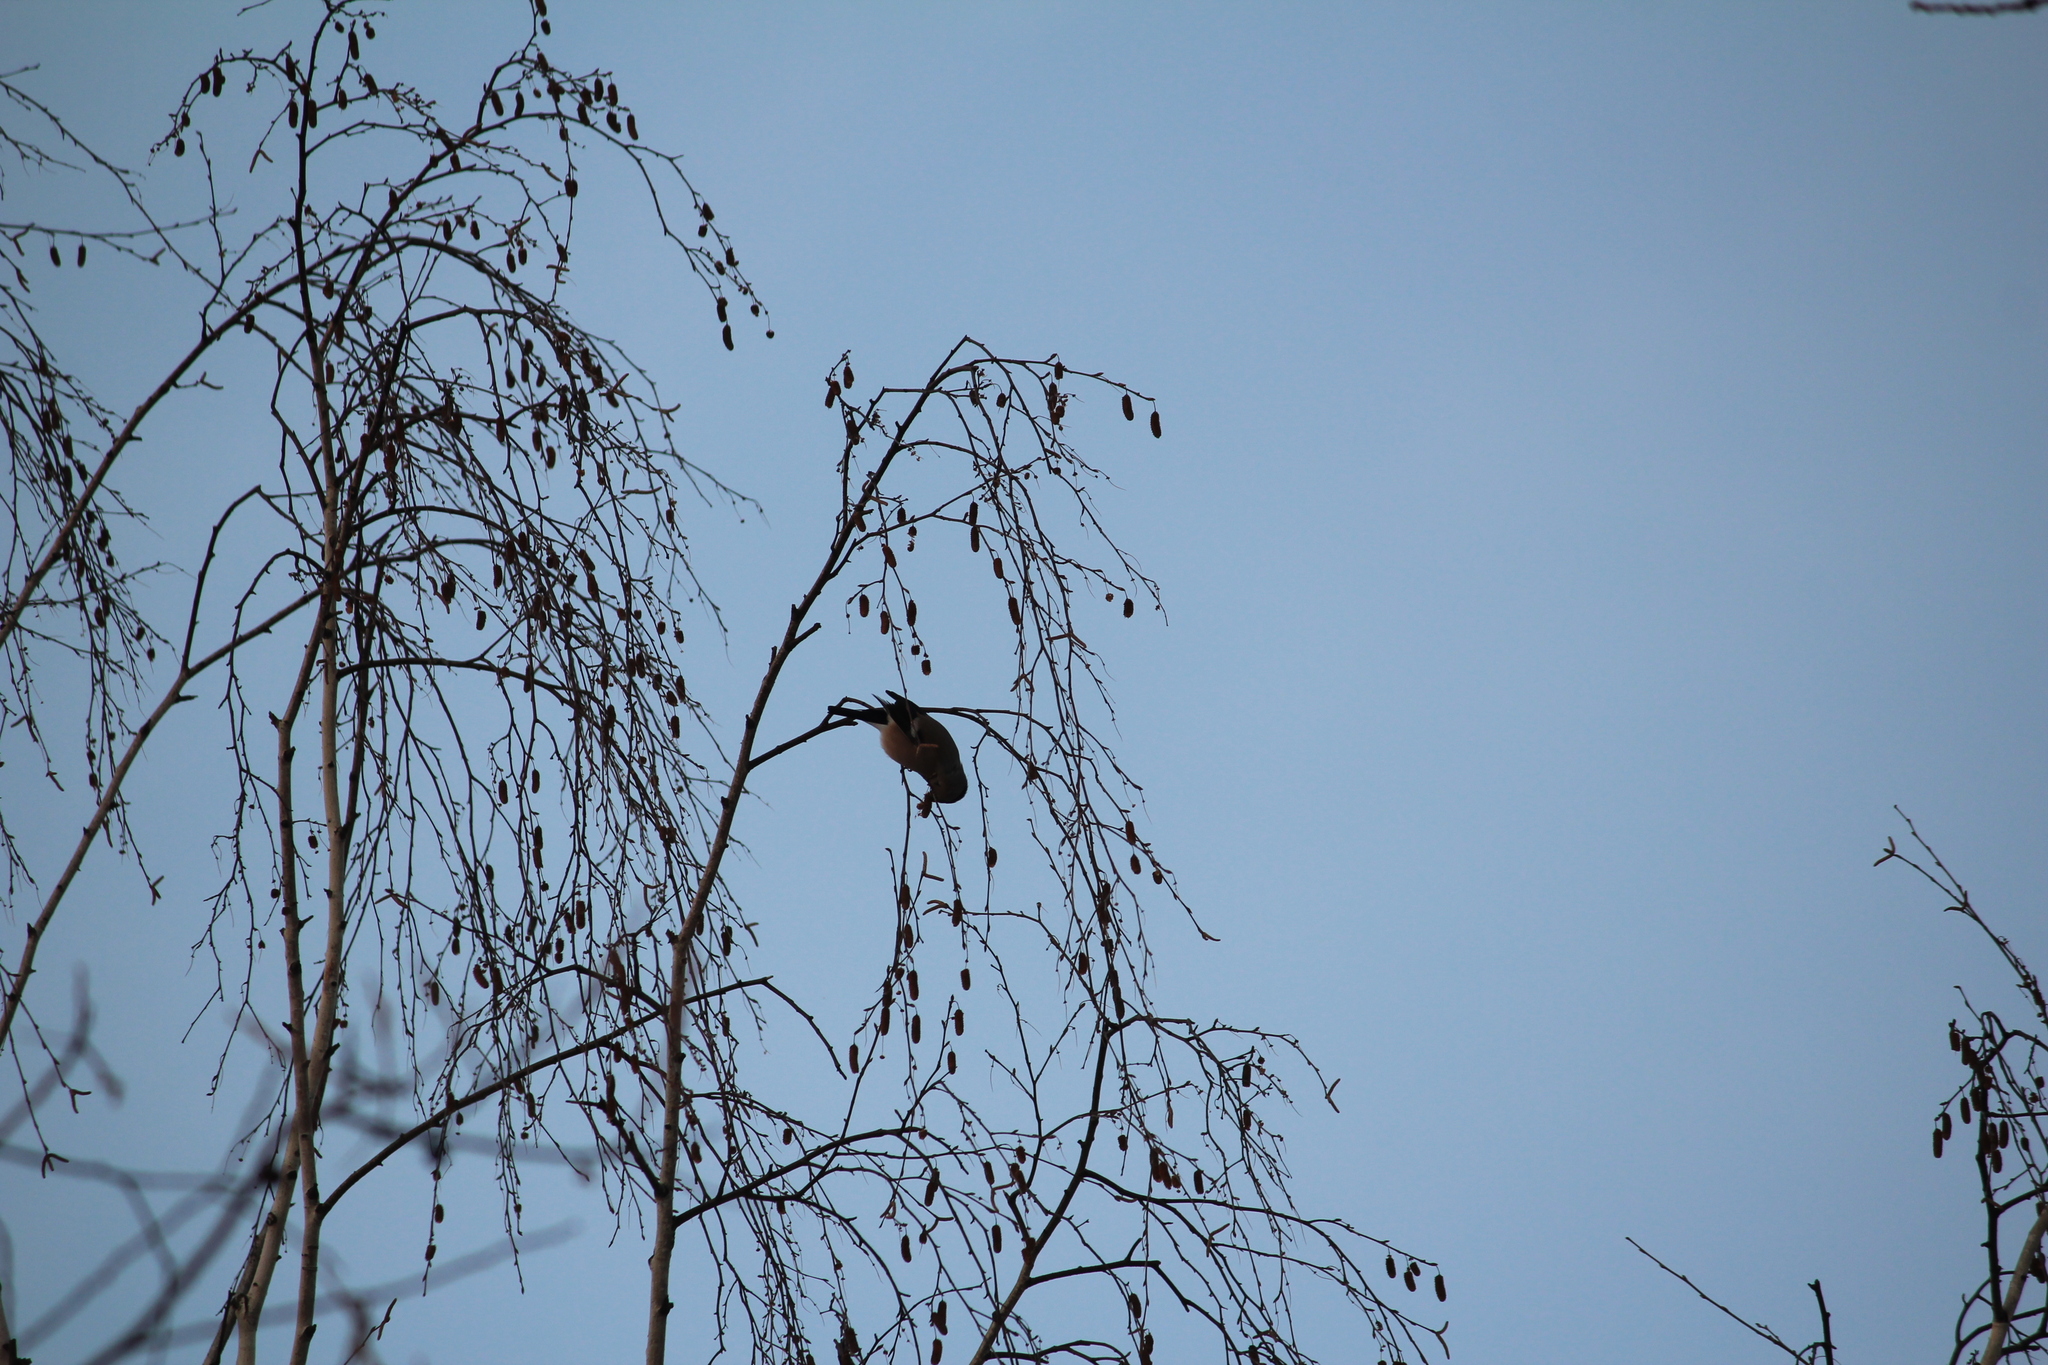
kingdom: Animalia
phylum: Chordata
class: Aves
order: Passeriformes
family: Fringillidae
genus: Pyrrhula
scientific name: Pyrrhula pyrrhula
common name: Eurasian bullfinch
